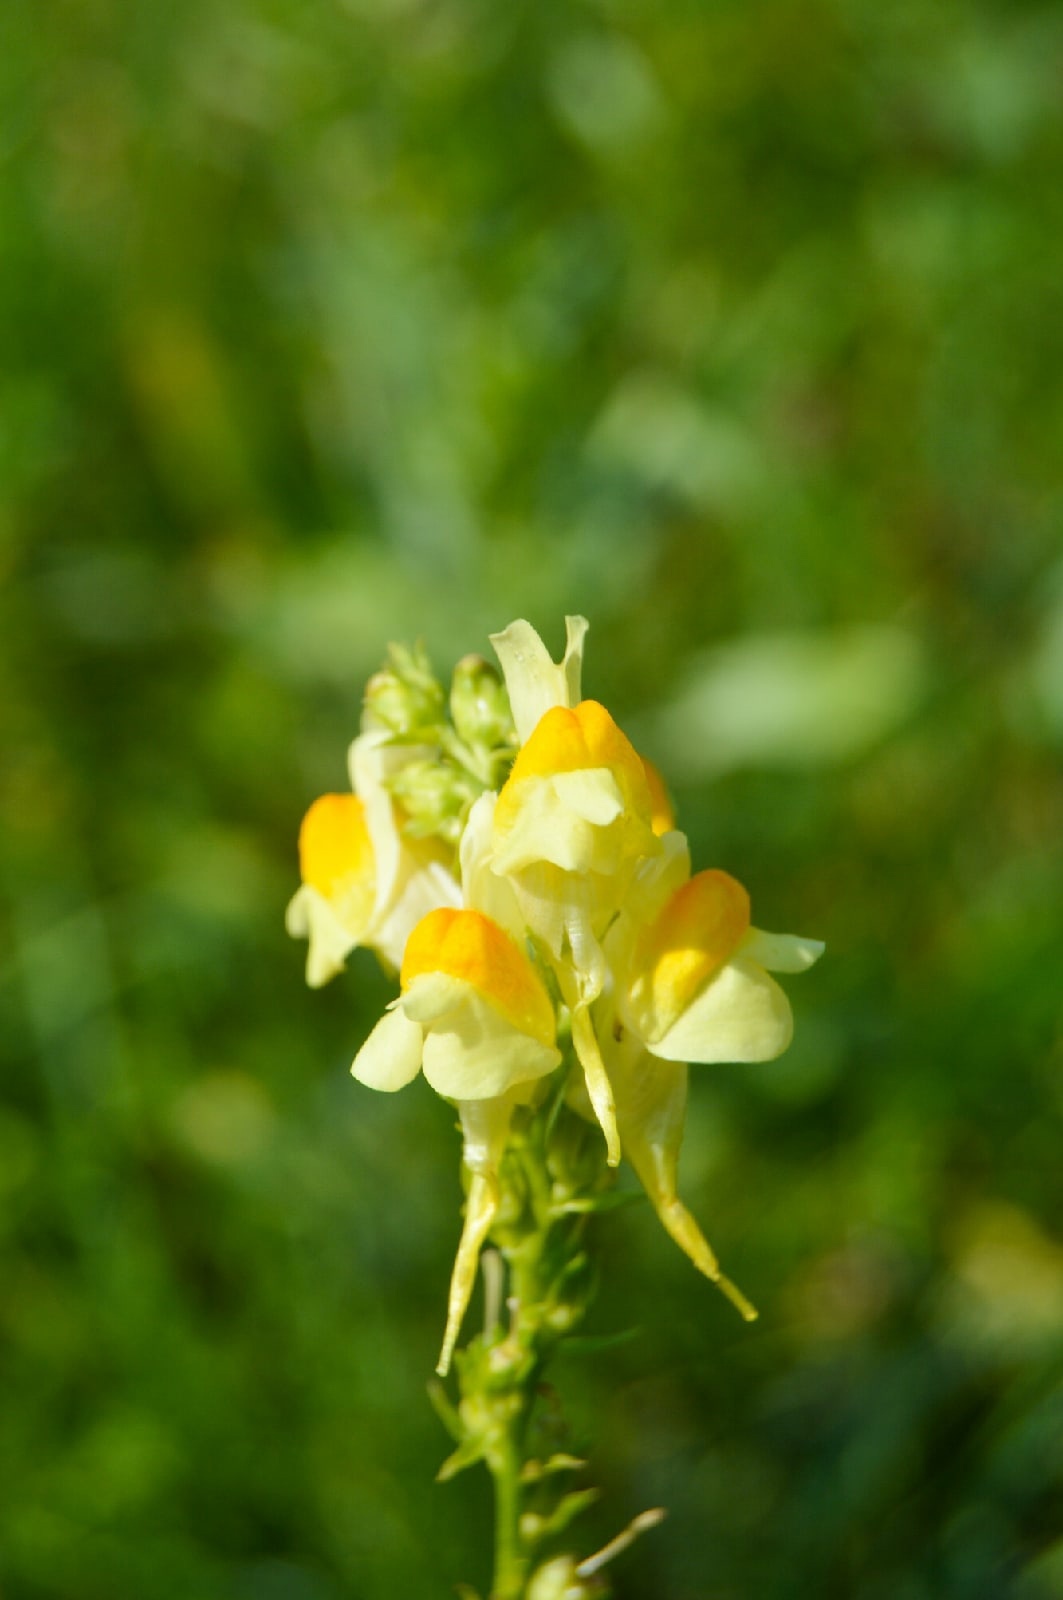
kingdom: Plantae
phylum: Tracheophyta
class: Magnoliopsida
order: Lamiales
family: Plantaginaceae
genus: Linaria
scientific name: Linaria vulgaris
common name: Butter and eggs
